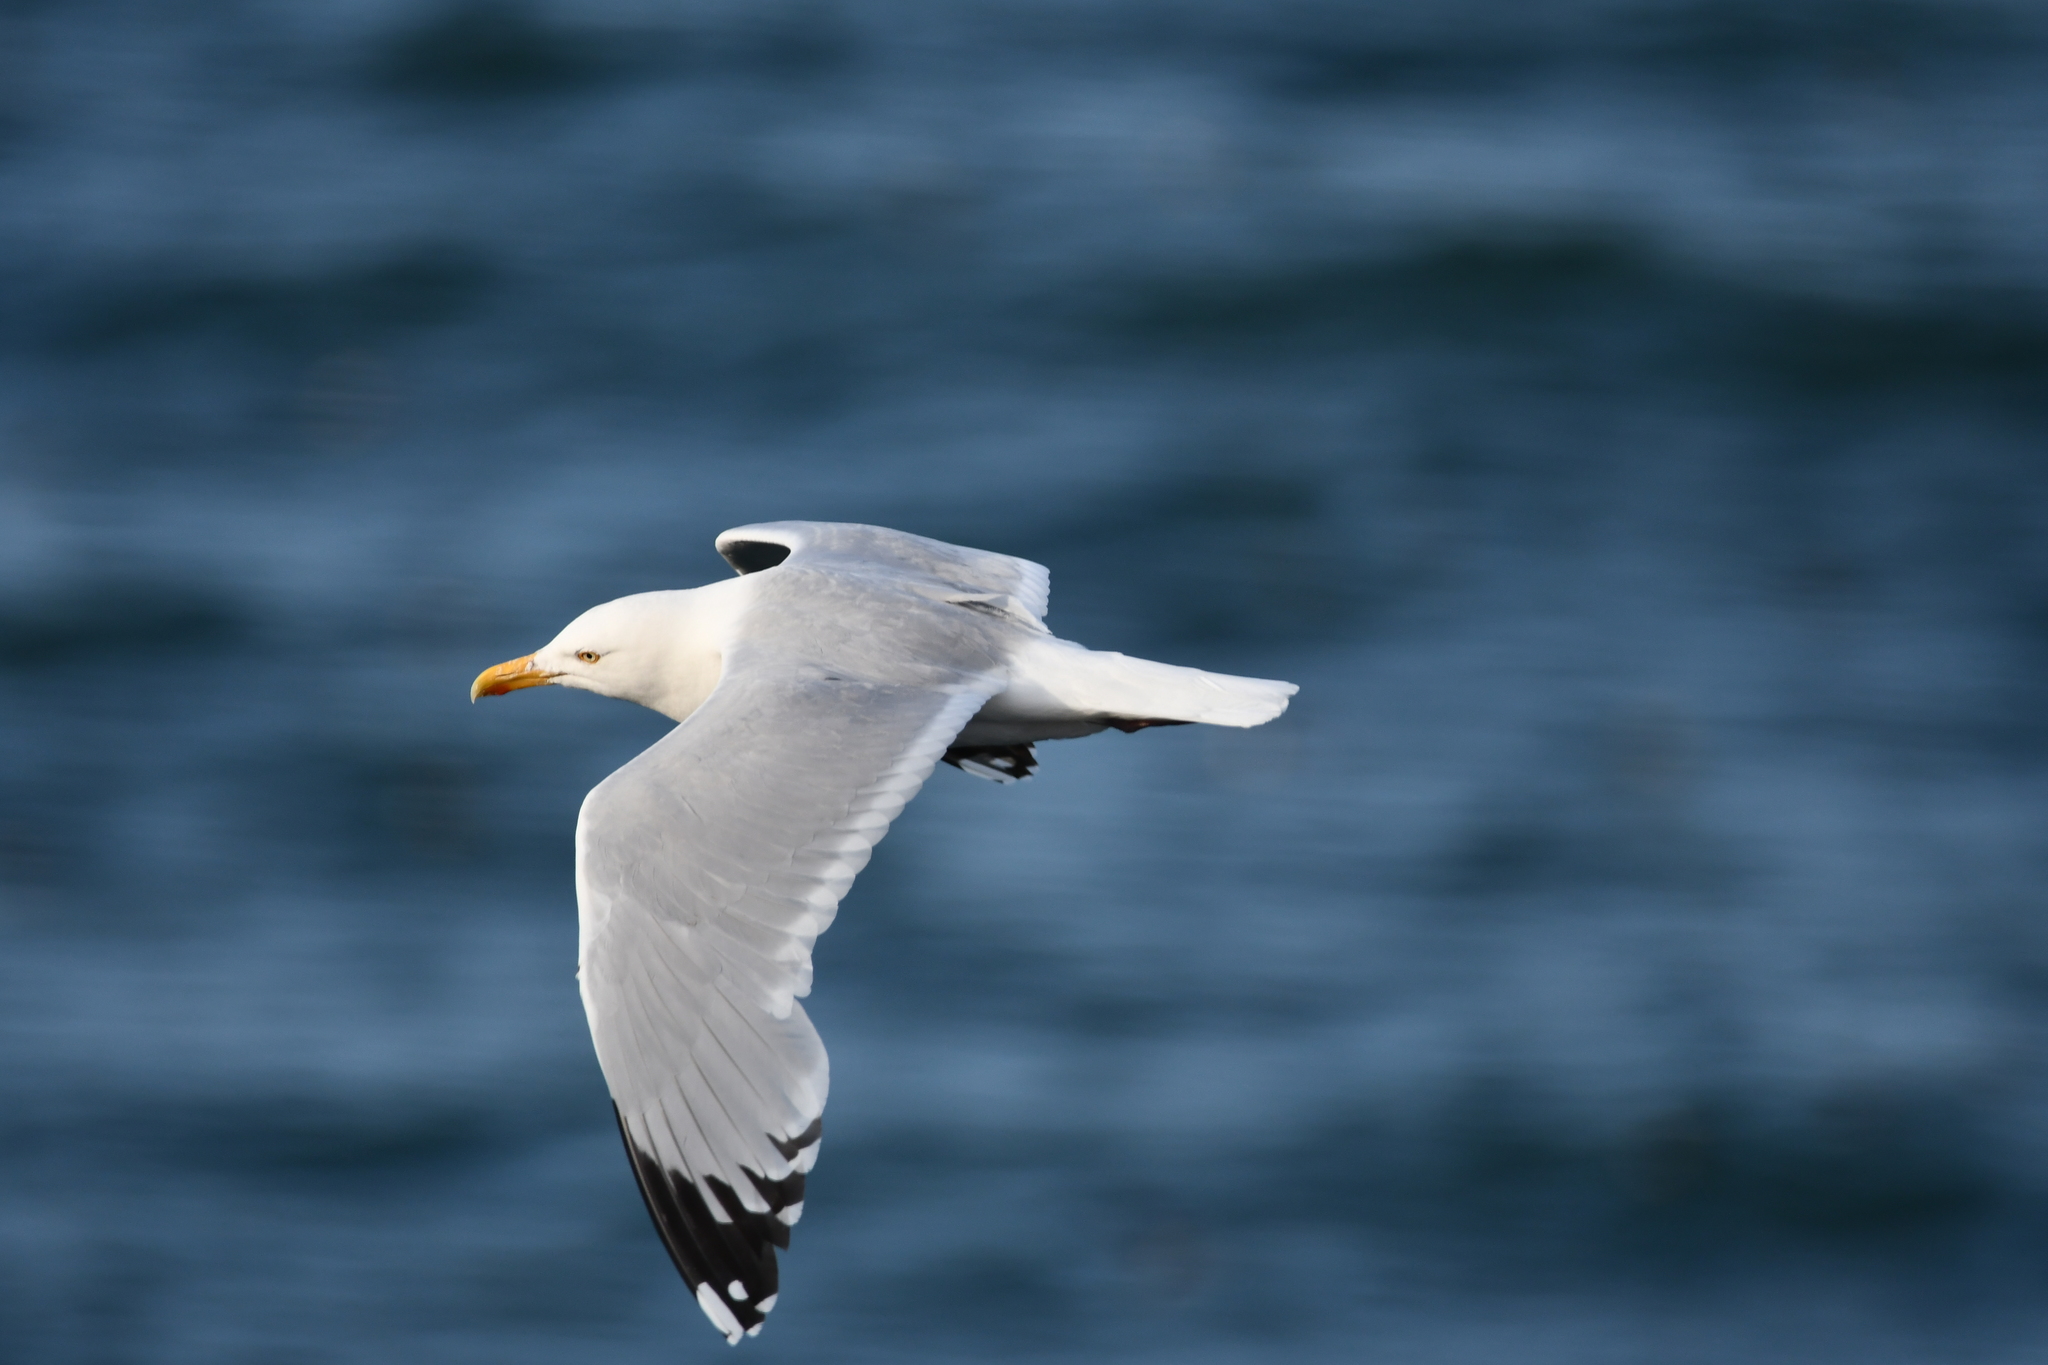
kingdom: Animalia
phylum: Chordata
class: Aves
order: Charadriiformes
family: Laridae
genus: Larus
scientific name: Larus argentatus
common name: Herring gull
